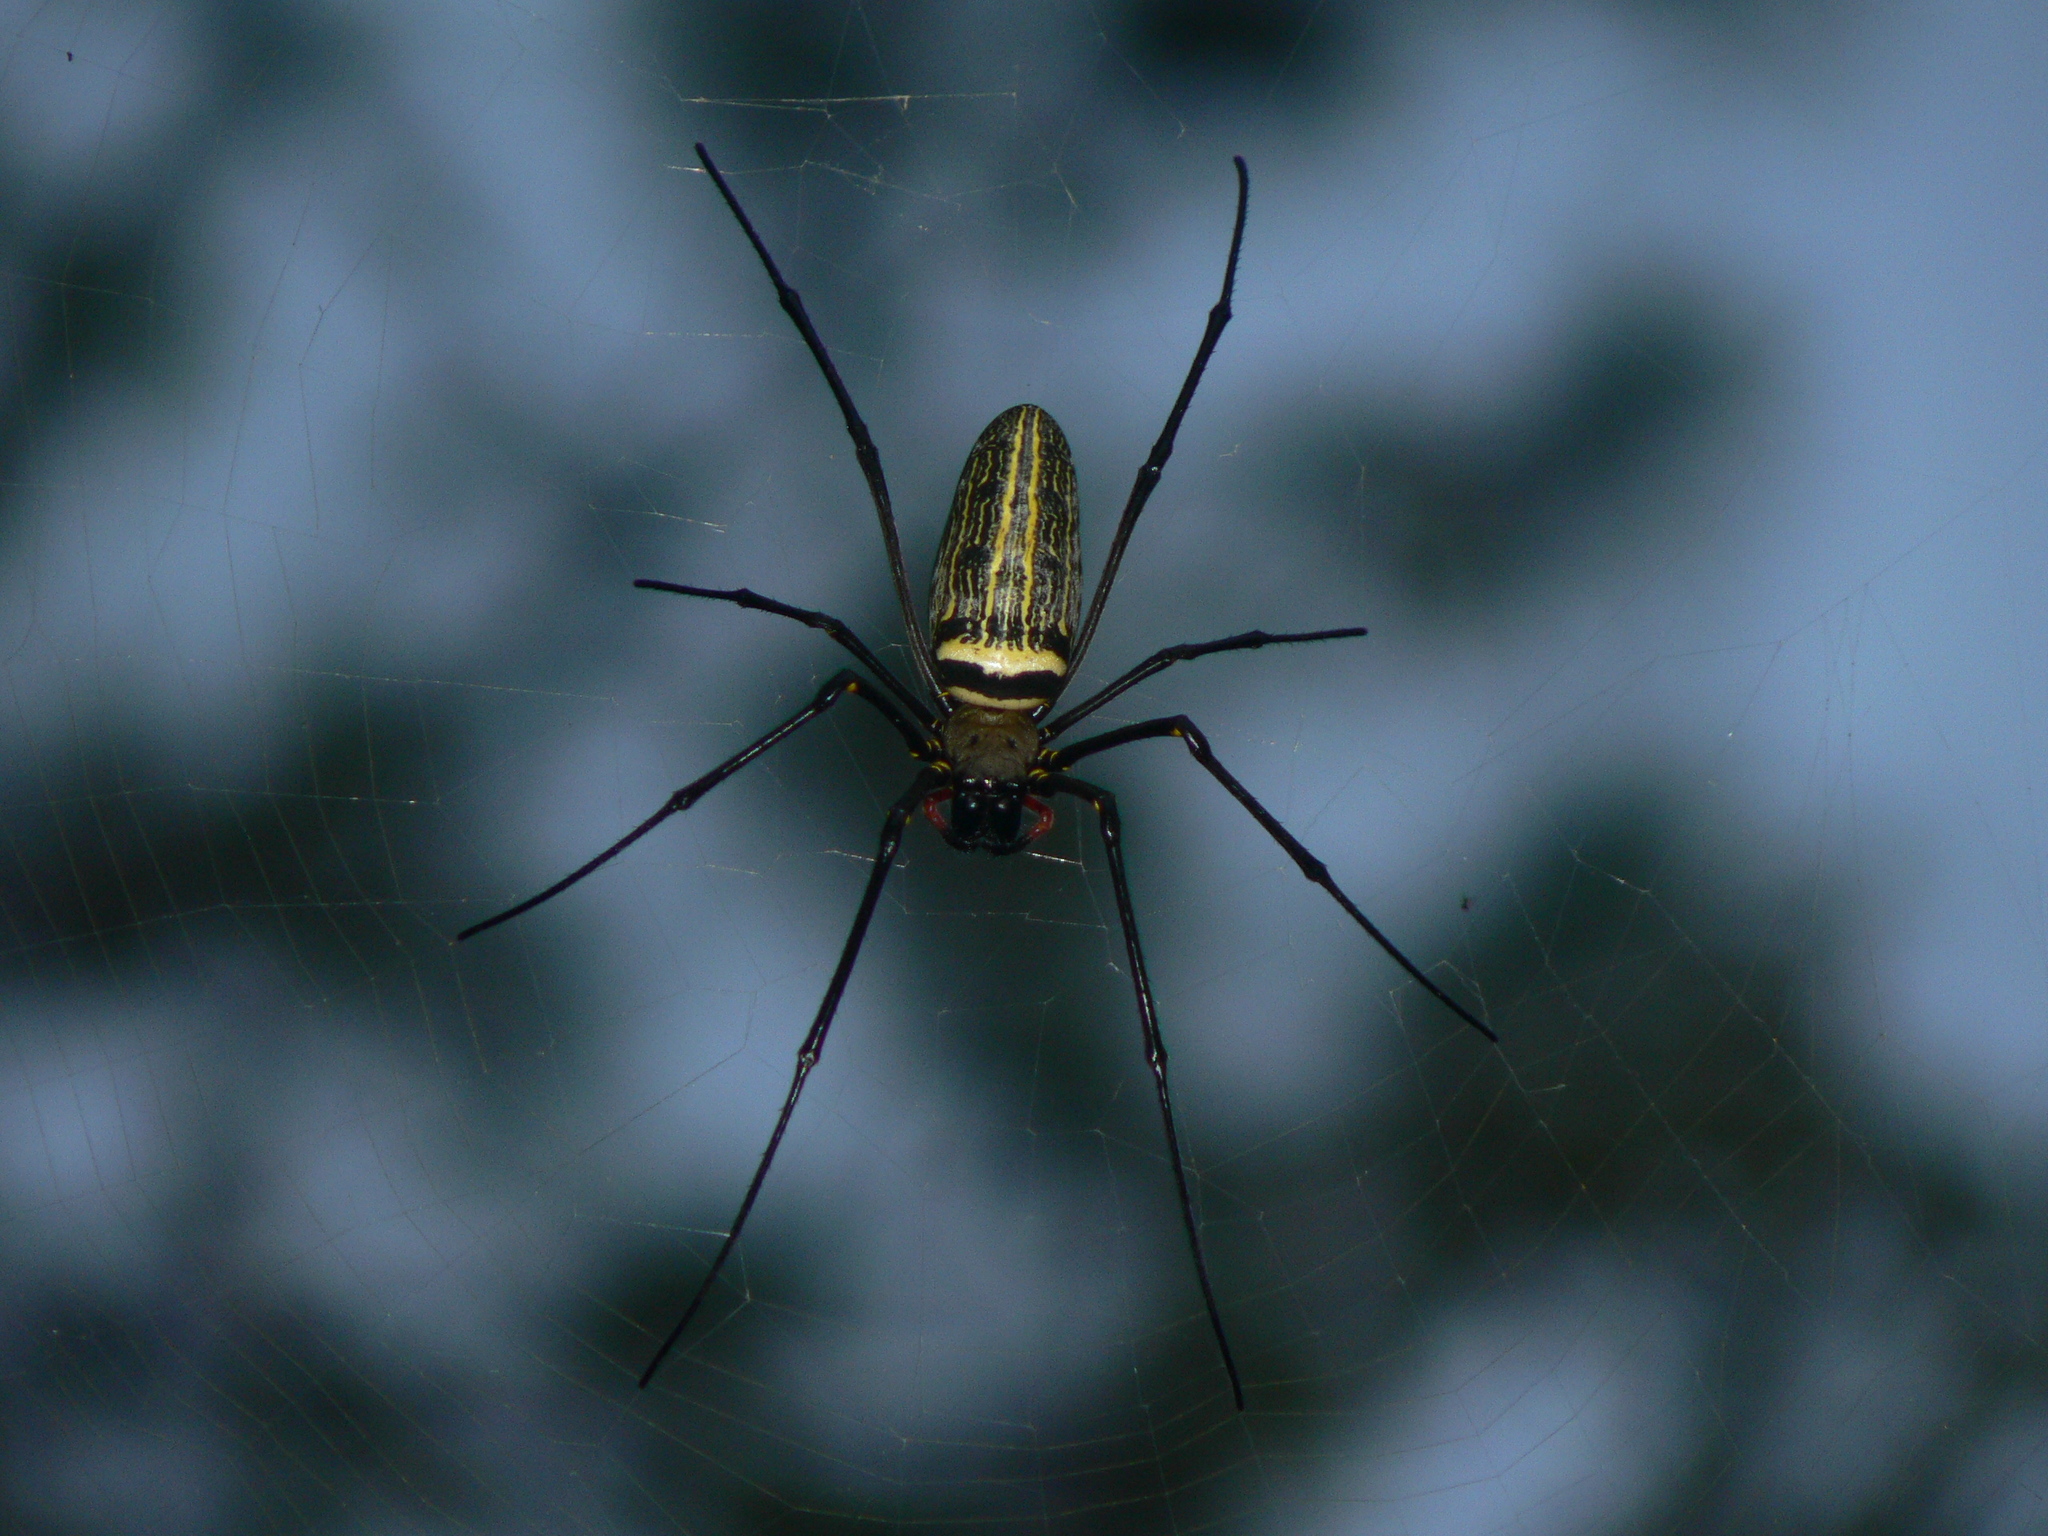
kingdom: Animalia
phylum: Arthropoda
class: Arachnida
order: Araneae
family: Araneidae
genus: Nephila
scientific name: Nephila pilipes
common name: Giant golden orb weaver
